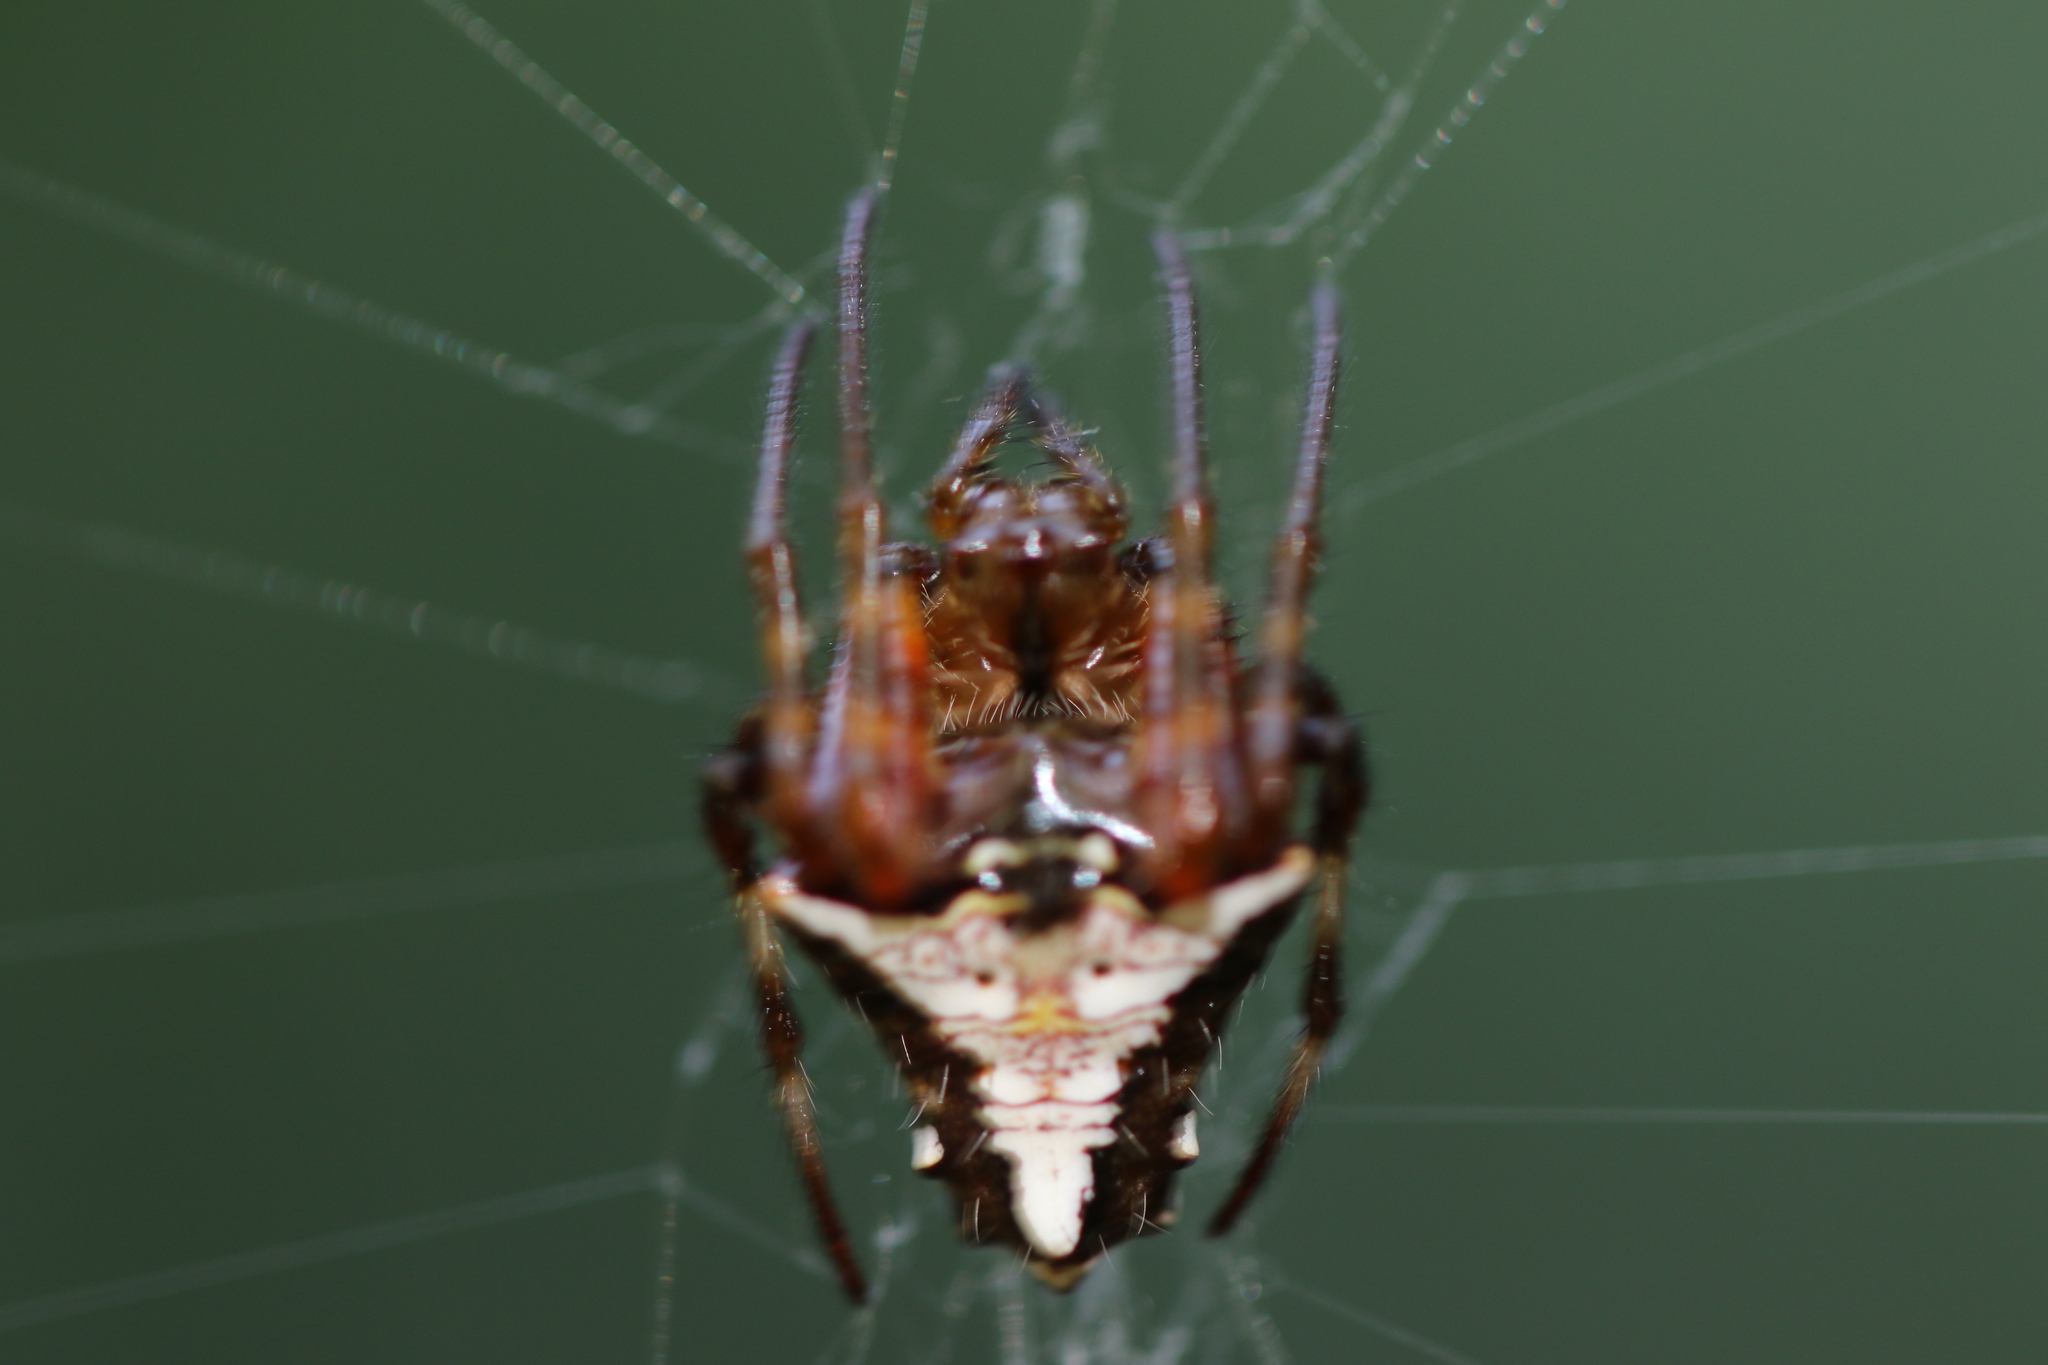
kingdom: Animalia
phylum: Arthropoda
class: Arachnida
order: Araneae
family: Araneidae
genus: Verrucosa
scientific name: Verrucosa scapofracta
